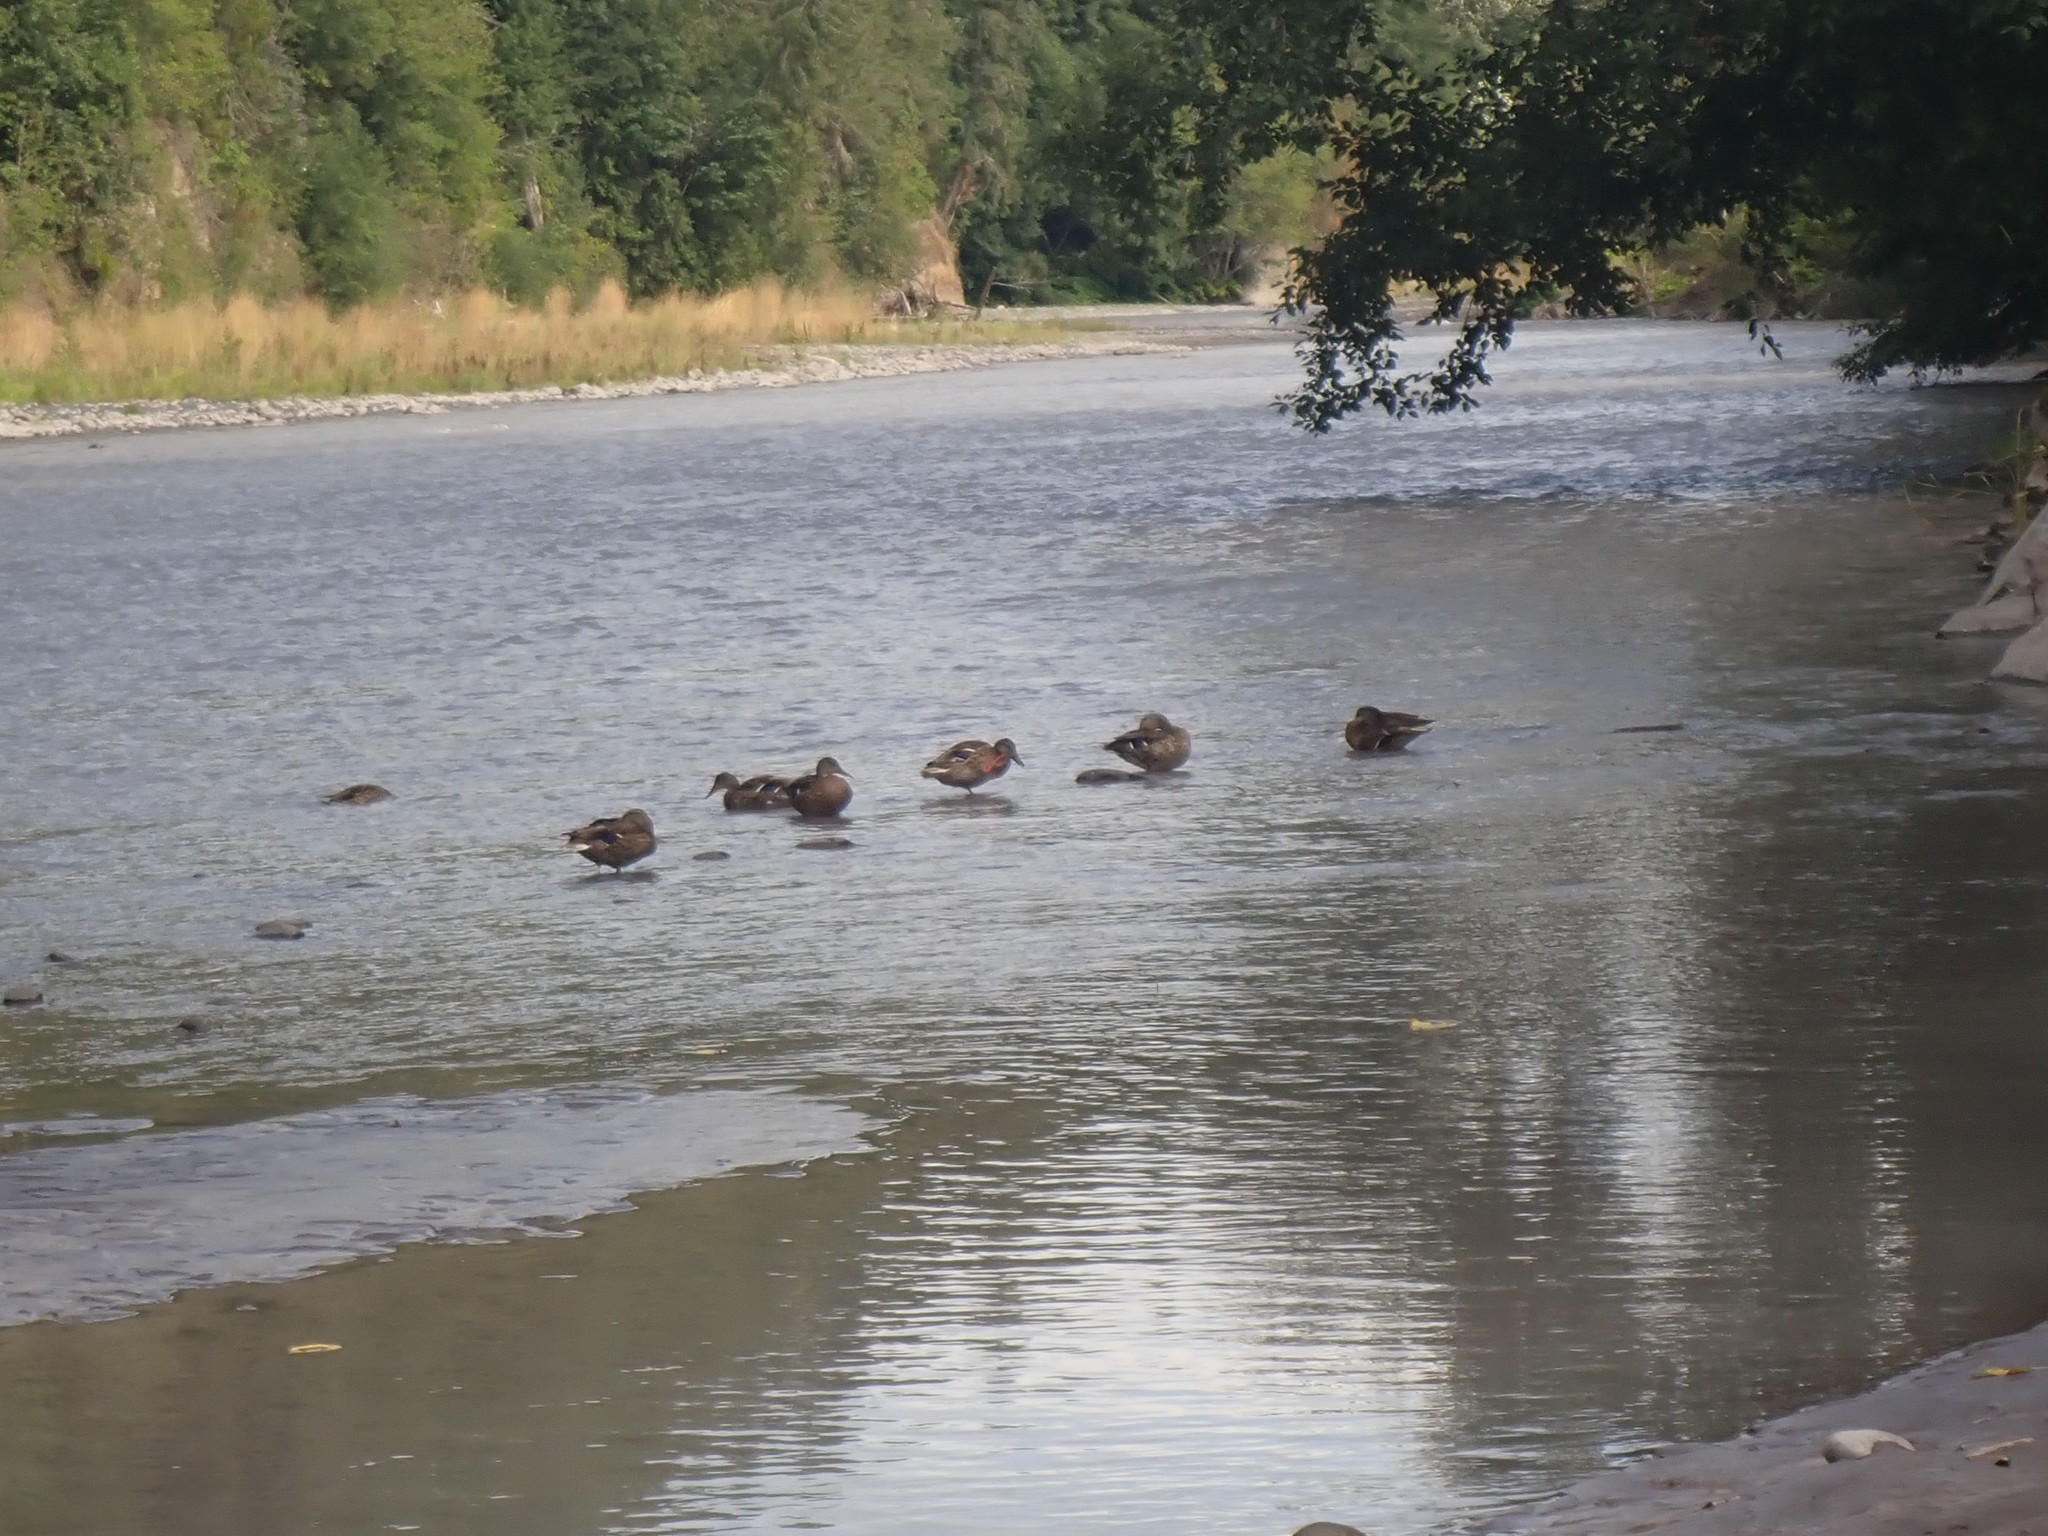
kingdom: Animalia
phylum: Chordata
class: Aves
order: Anseriformes
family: Anatidae
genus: Anas
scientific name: Anas platyrhynchos
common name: Mallard
